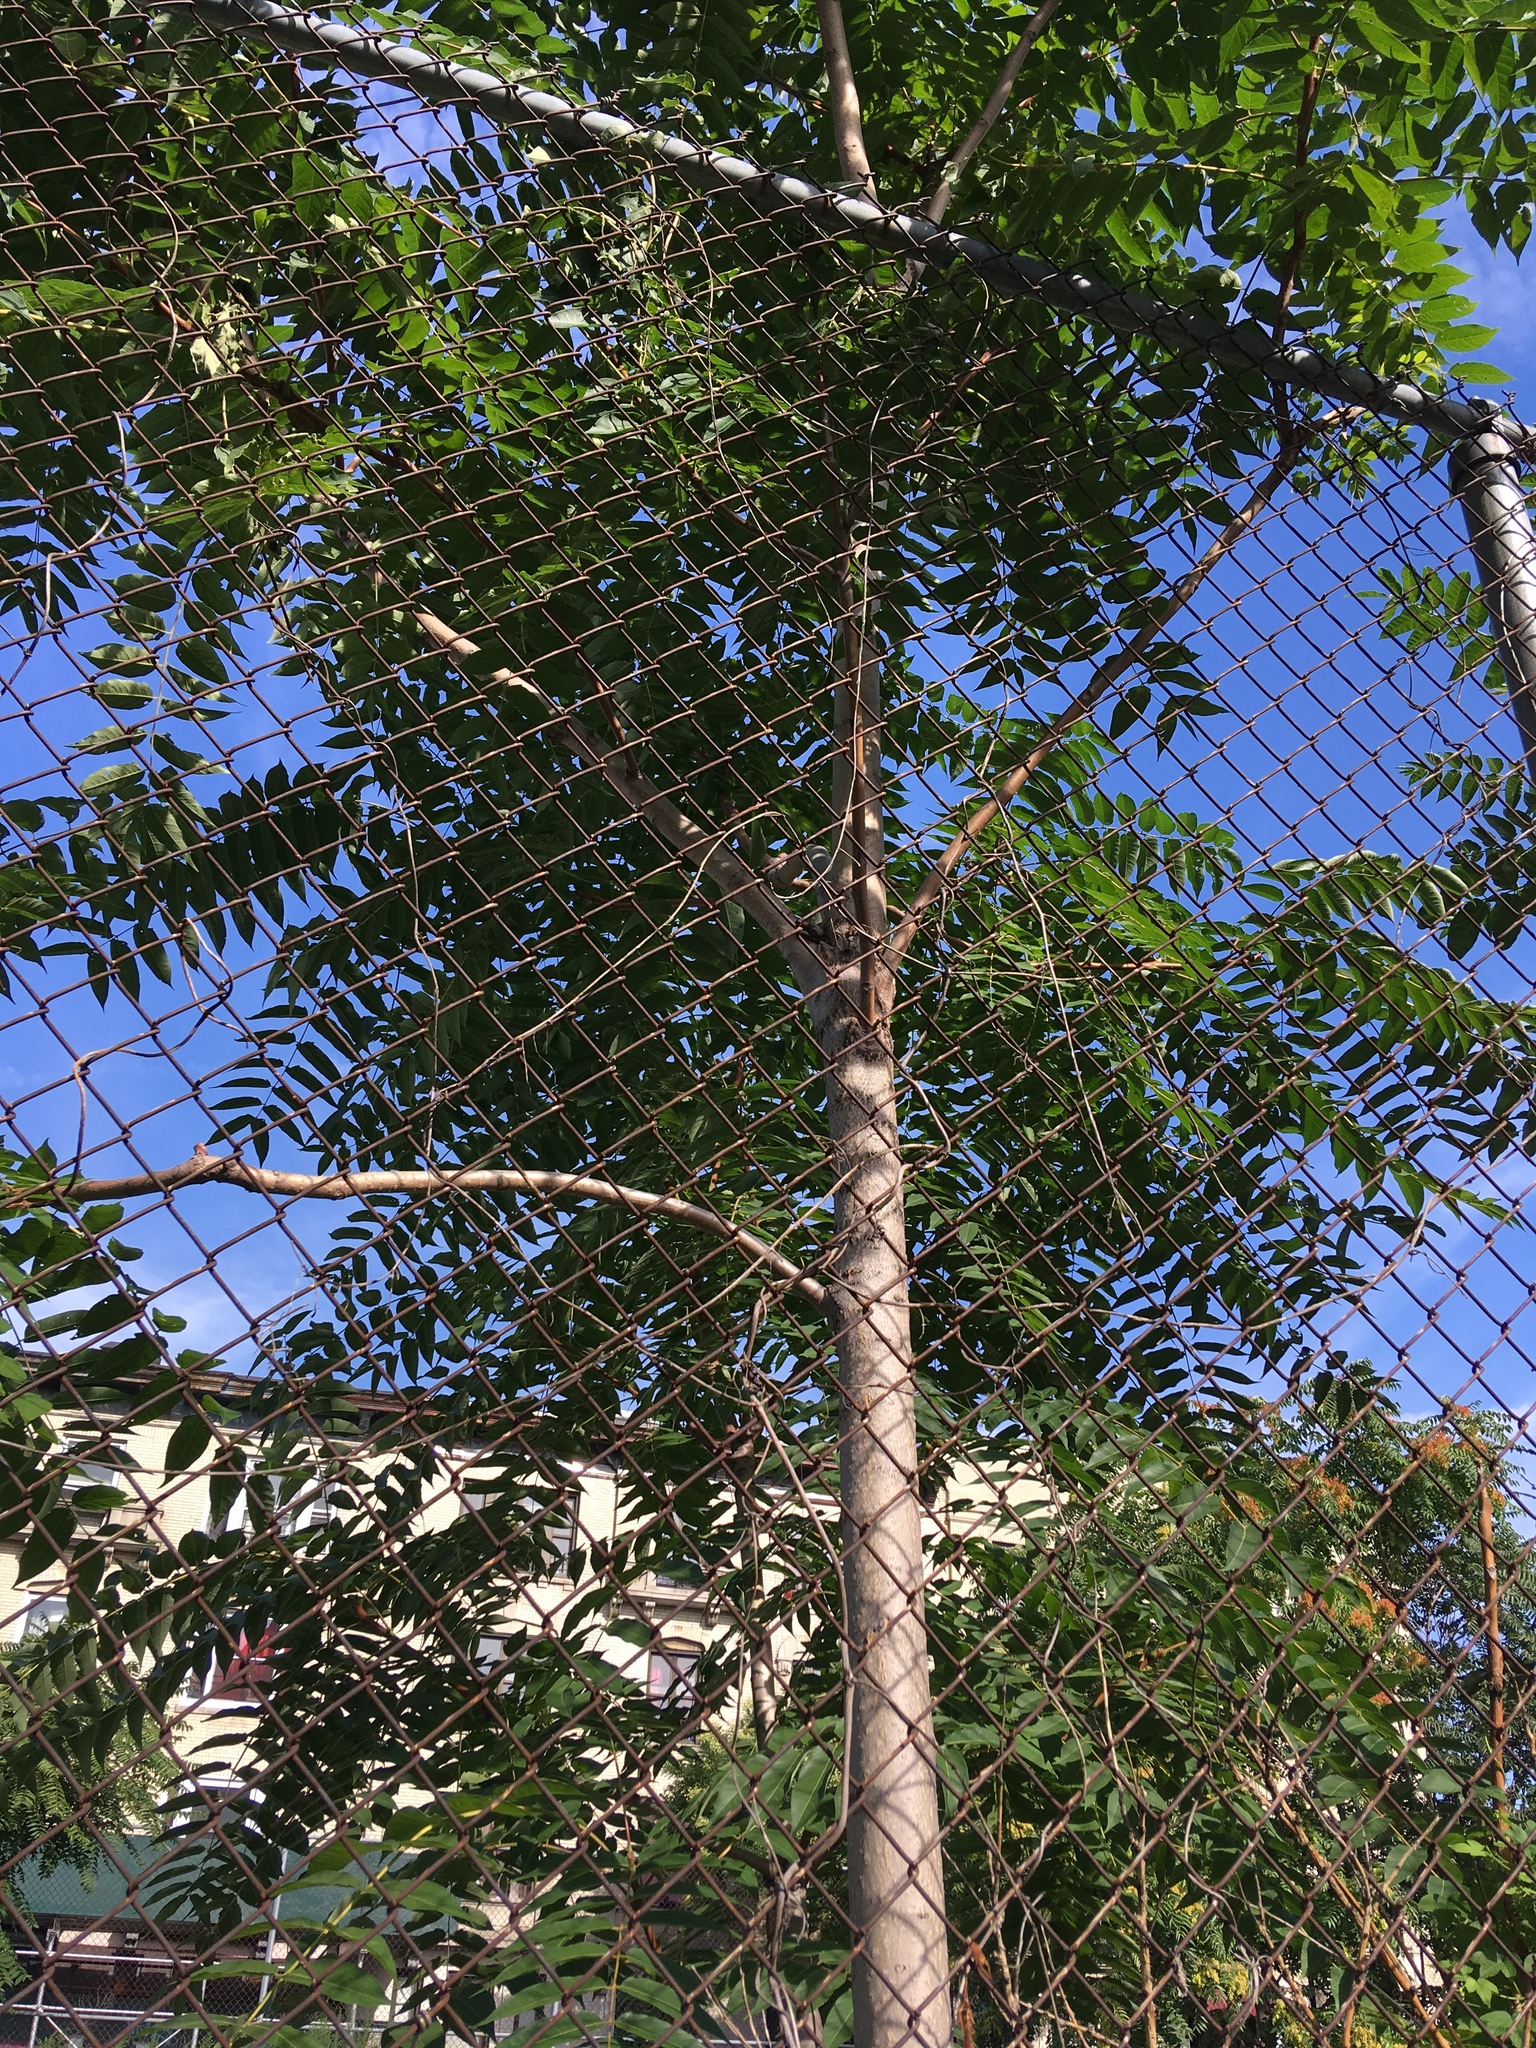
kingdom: Plantae
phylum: Tracheophyta
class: Magnoliopsida
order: Sapindales
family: Simaroubaceae
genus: Ailanthus
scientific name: Ailanthus altissima
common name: Tree-of-heaven
